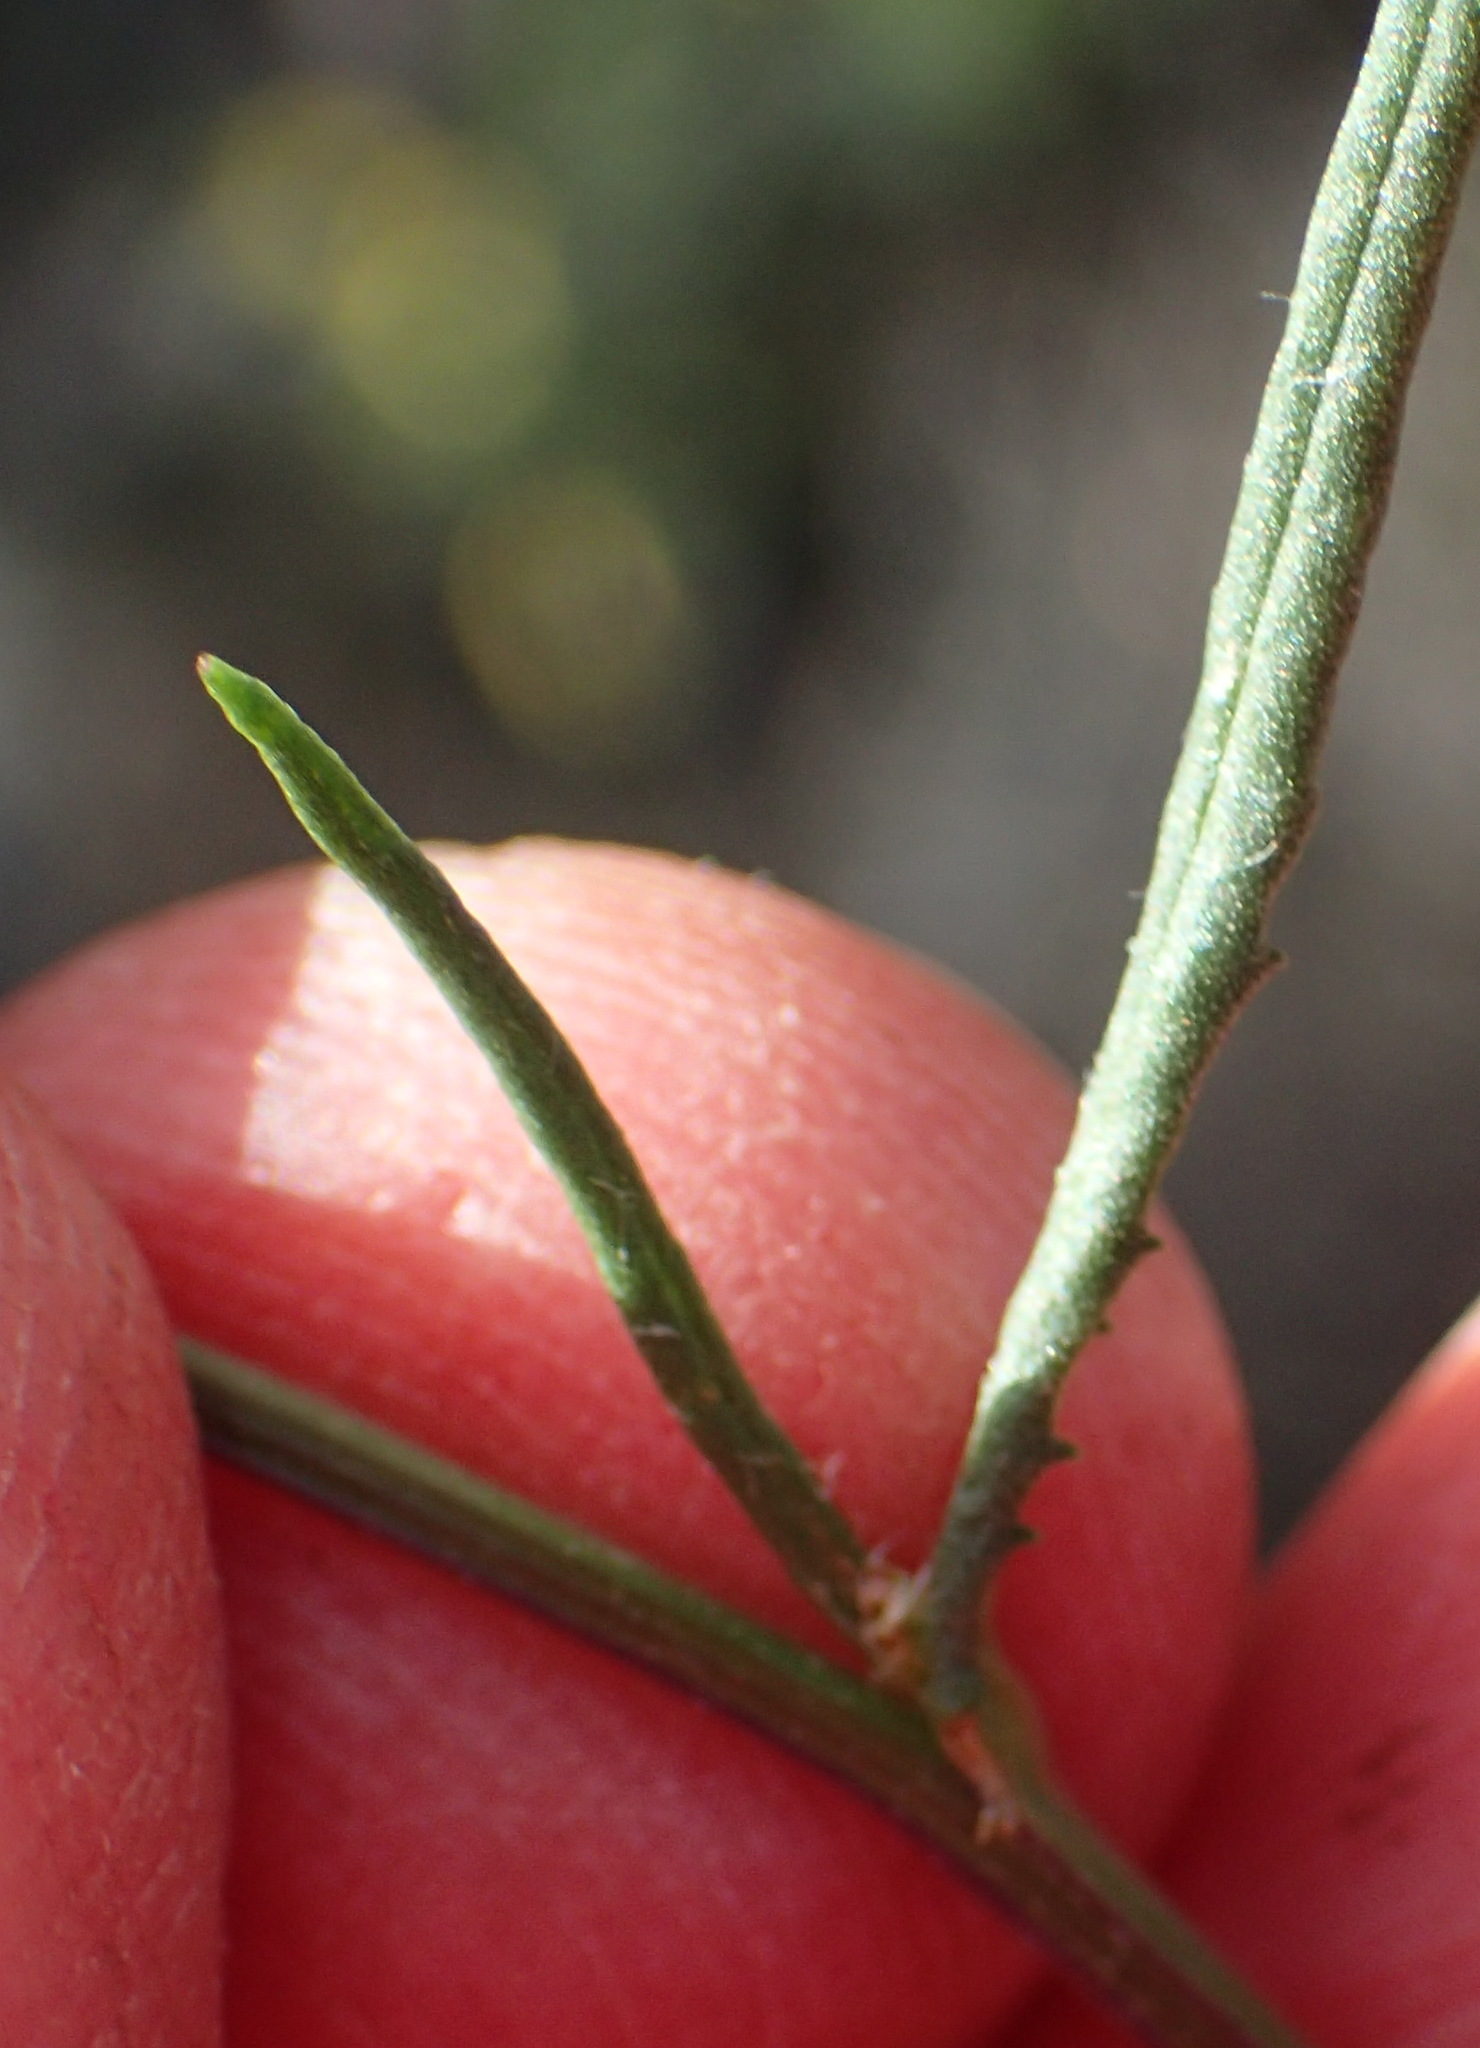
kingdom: Plantae
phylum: Tracheophyta
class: Magnoliopsida
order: Asterales
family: Asteraceae
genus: Senecio
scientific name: Senecio burchellii
